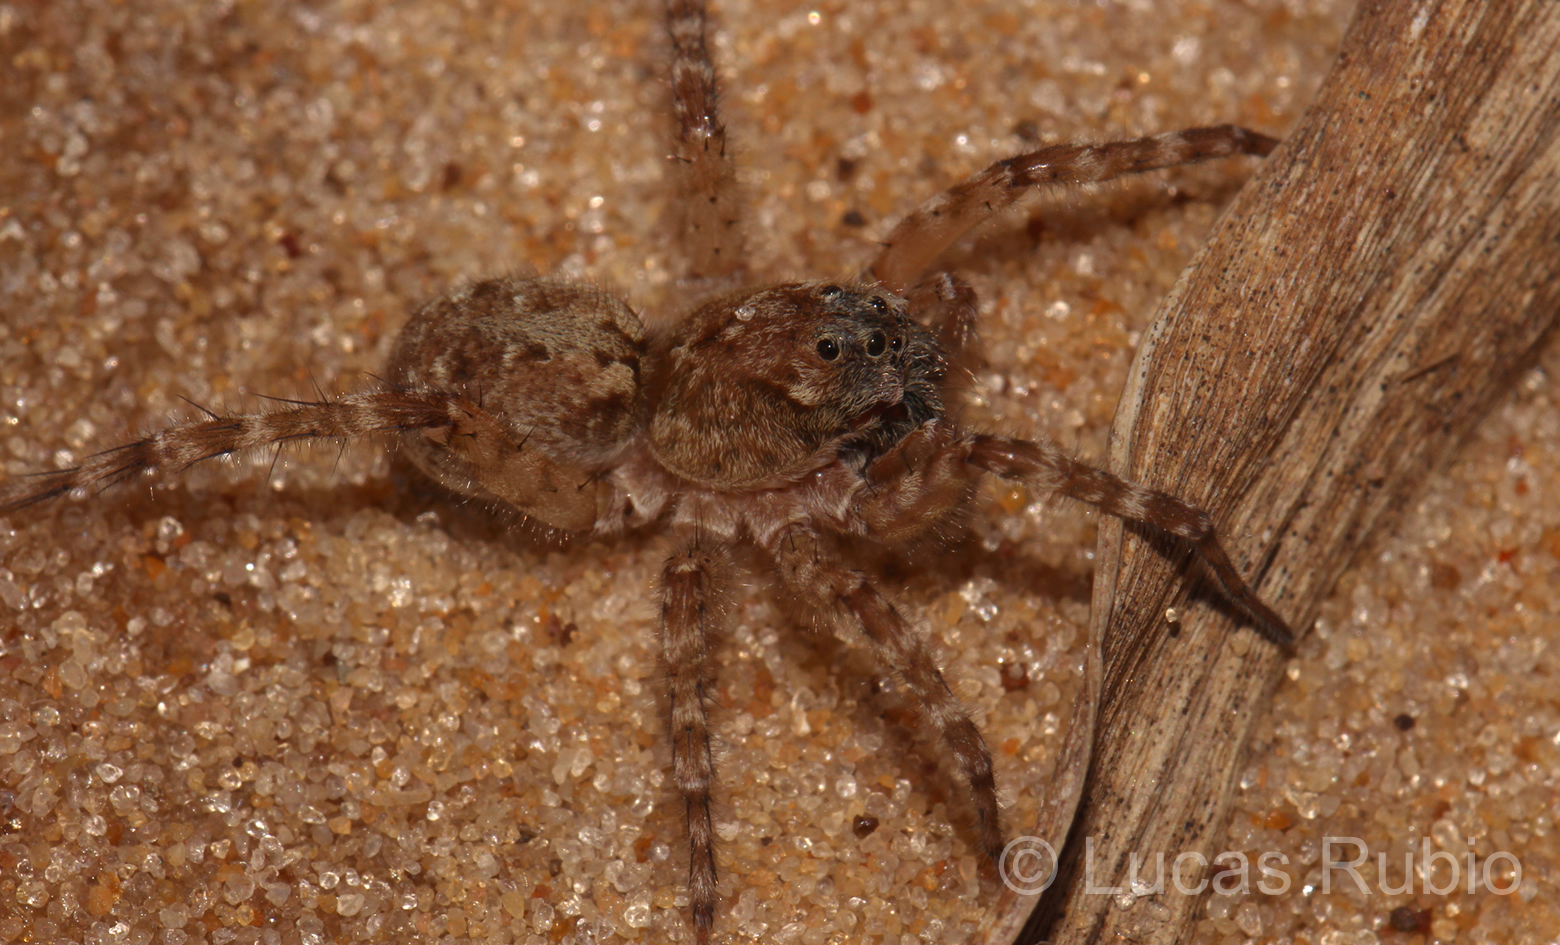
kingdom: Animalia
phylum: Arthropoda
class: Arachnida
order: Araneae
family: Lycosidae
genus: Paratrochosina
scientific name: Paratrochosina amica
